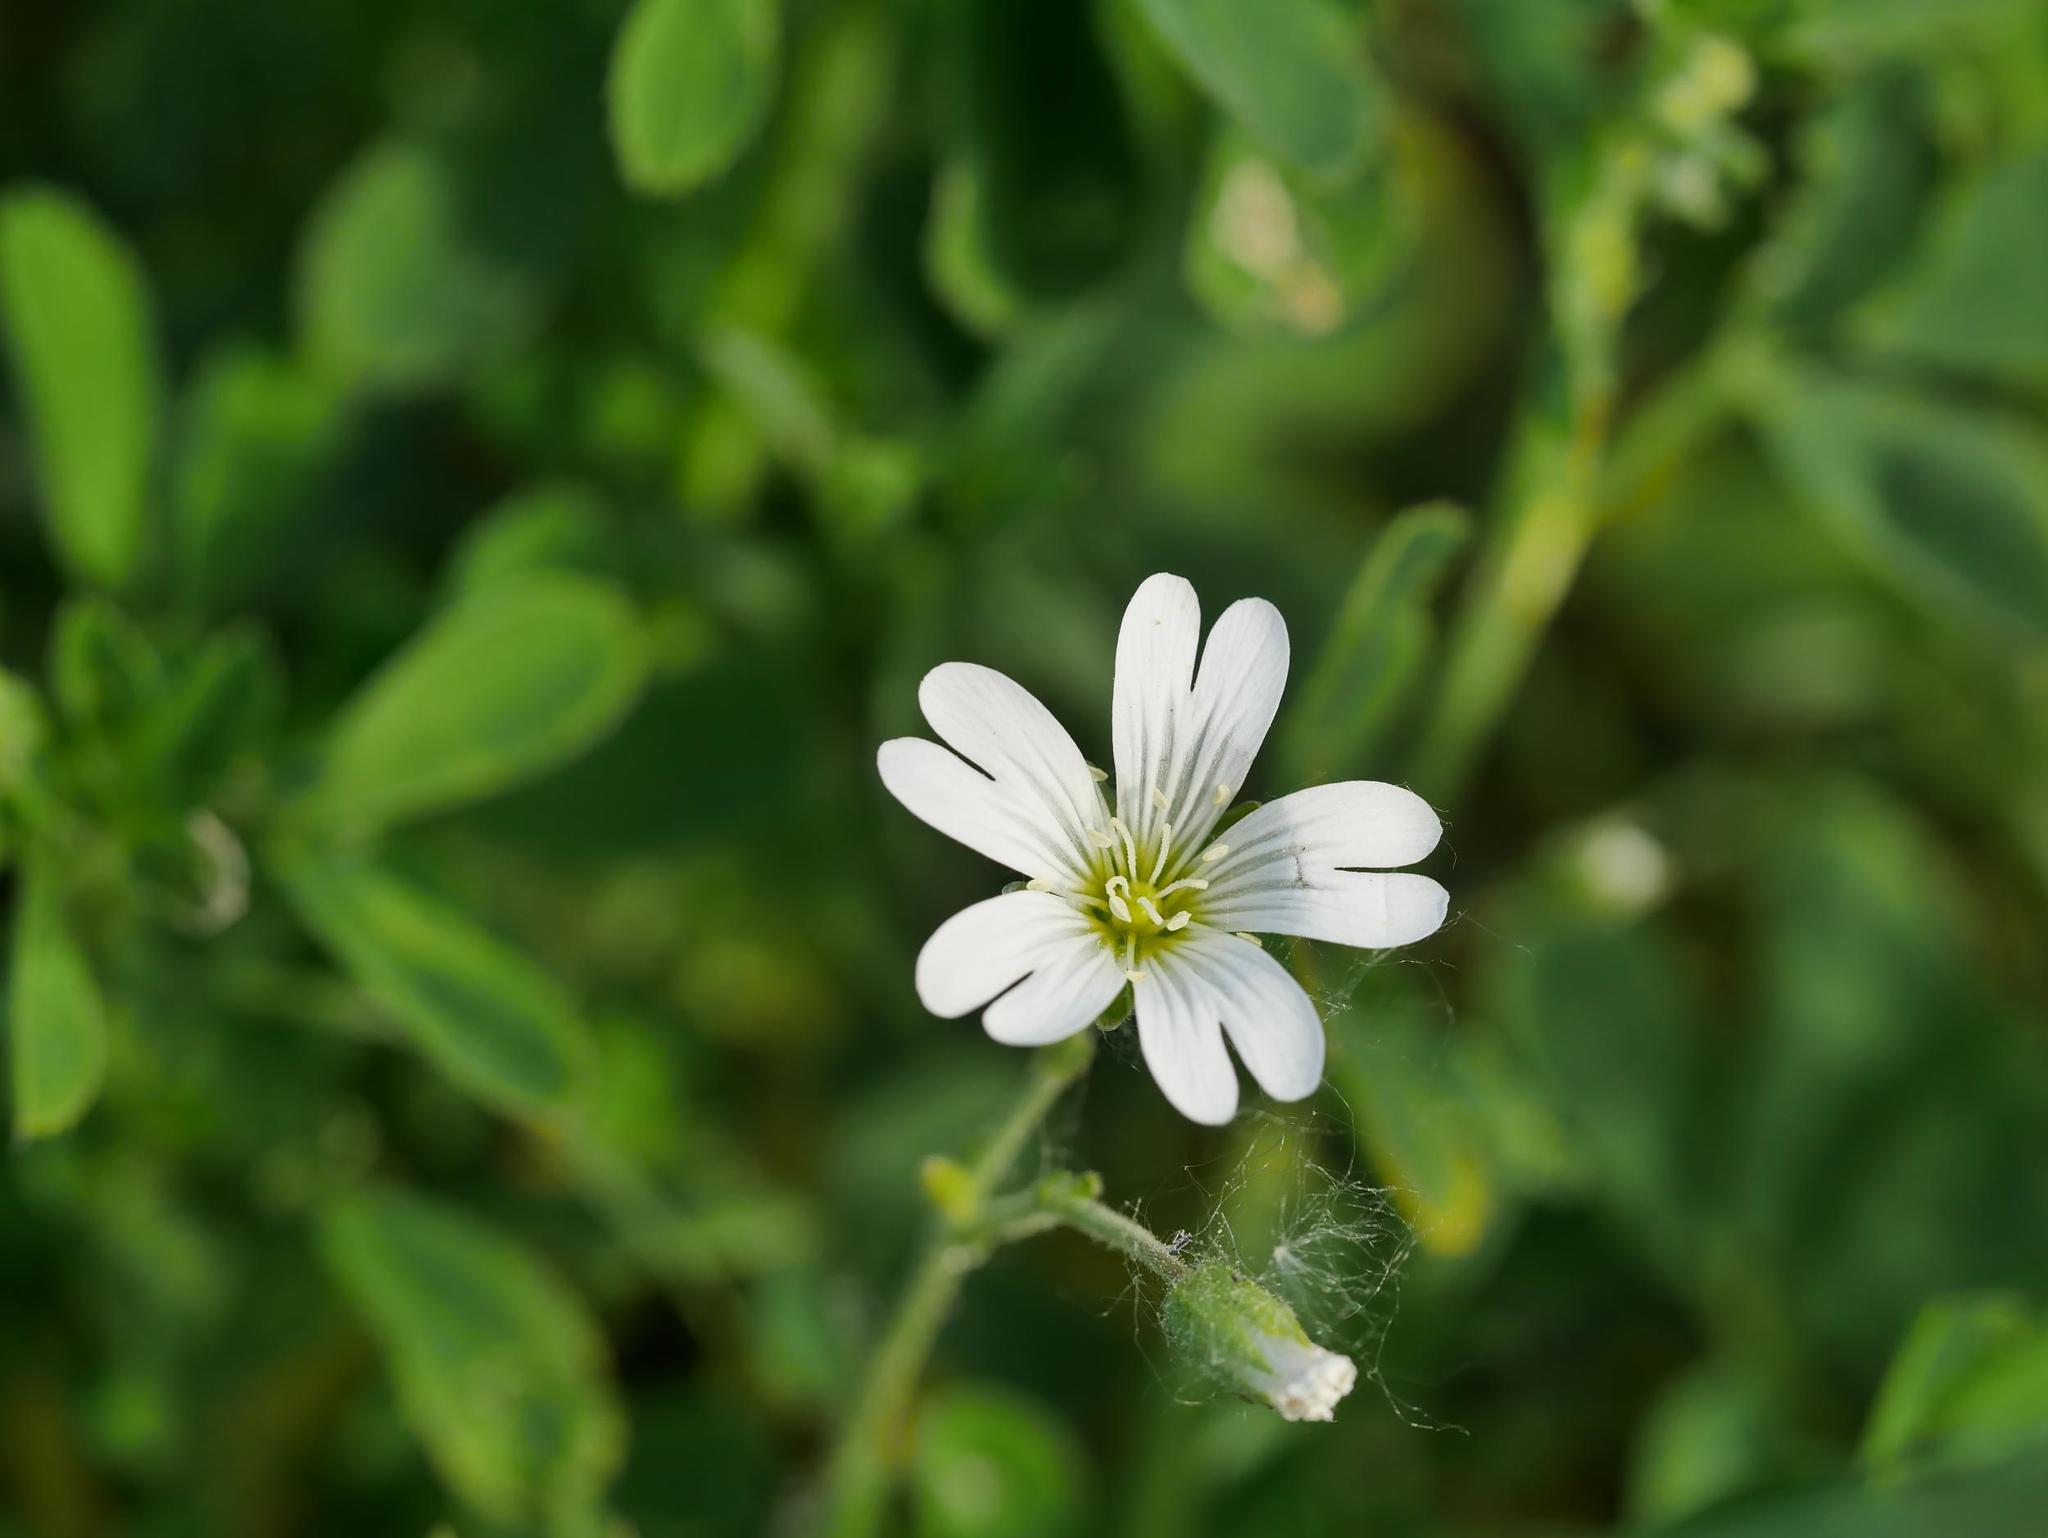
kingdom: Plantae
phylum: Tracheophyta
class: Magnoliopsida
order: Caryophyllales
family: Caryophyllaceae
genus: Cerastium
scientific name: Cerastium arvense
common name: Field mouse-ear
